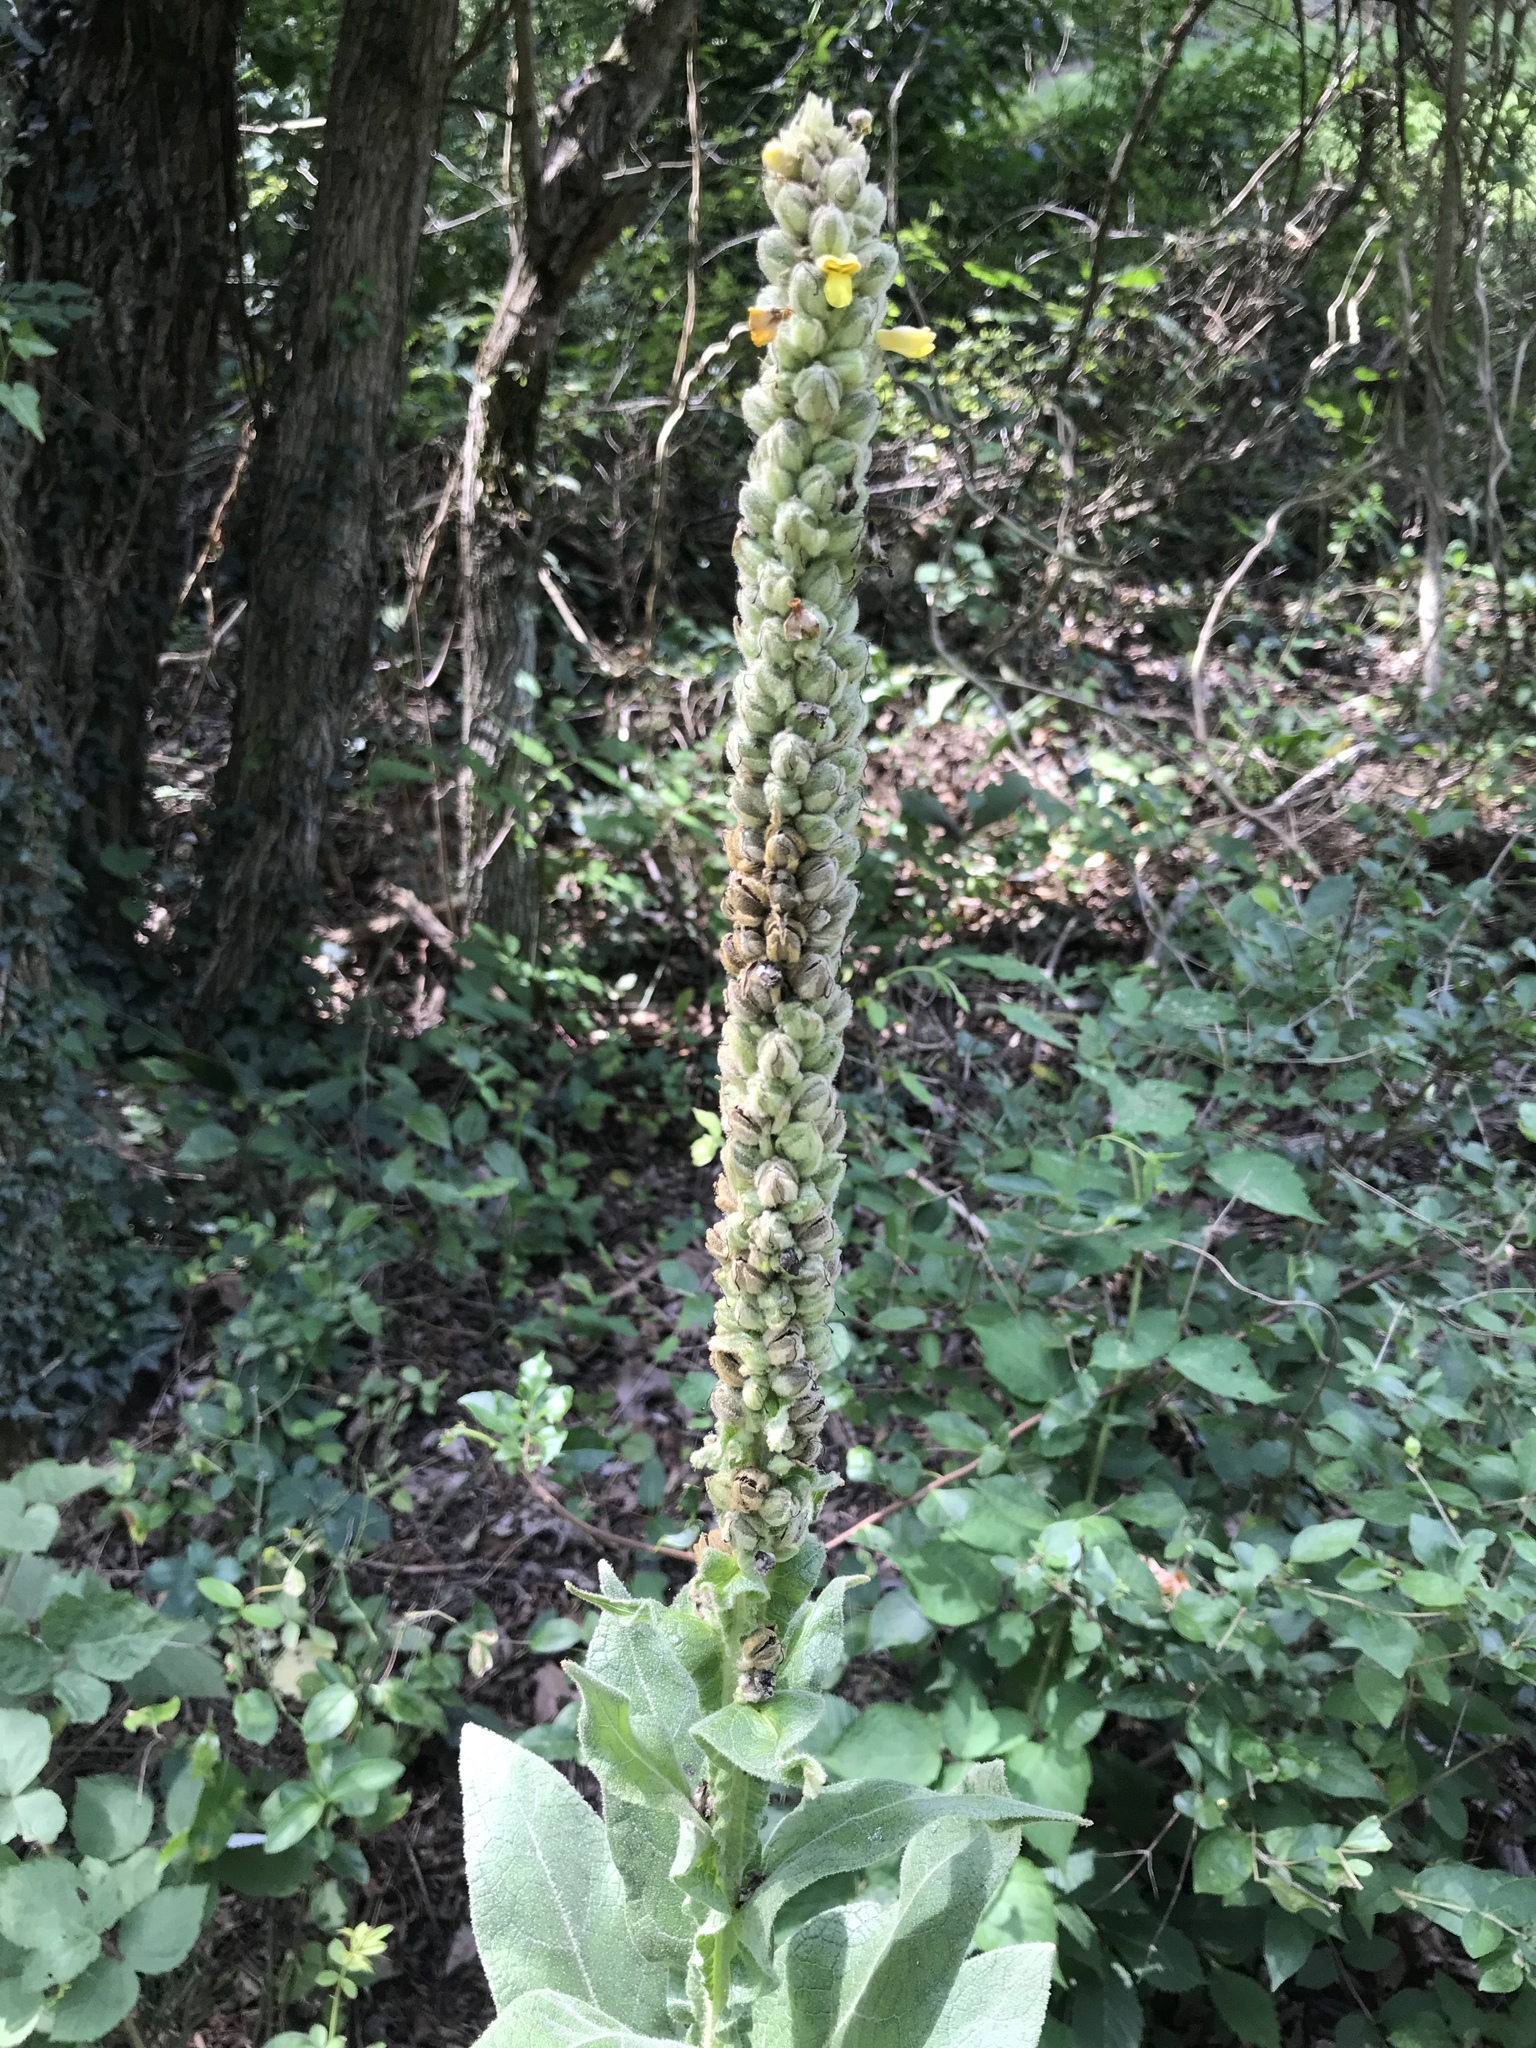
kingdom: Plantae
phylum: Tracheophyta
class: Magnoliopsida
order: Lamiales
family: Scrophulariaceae
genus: Verbascum
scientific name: Verbascum thapsus
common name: Common mullein
